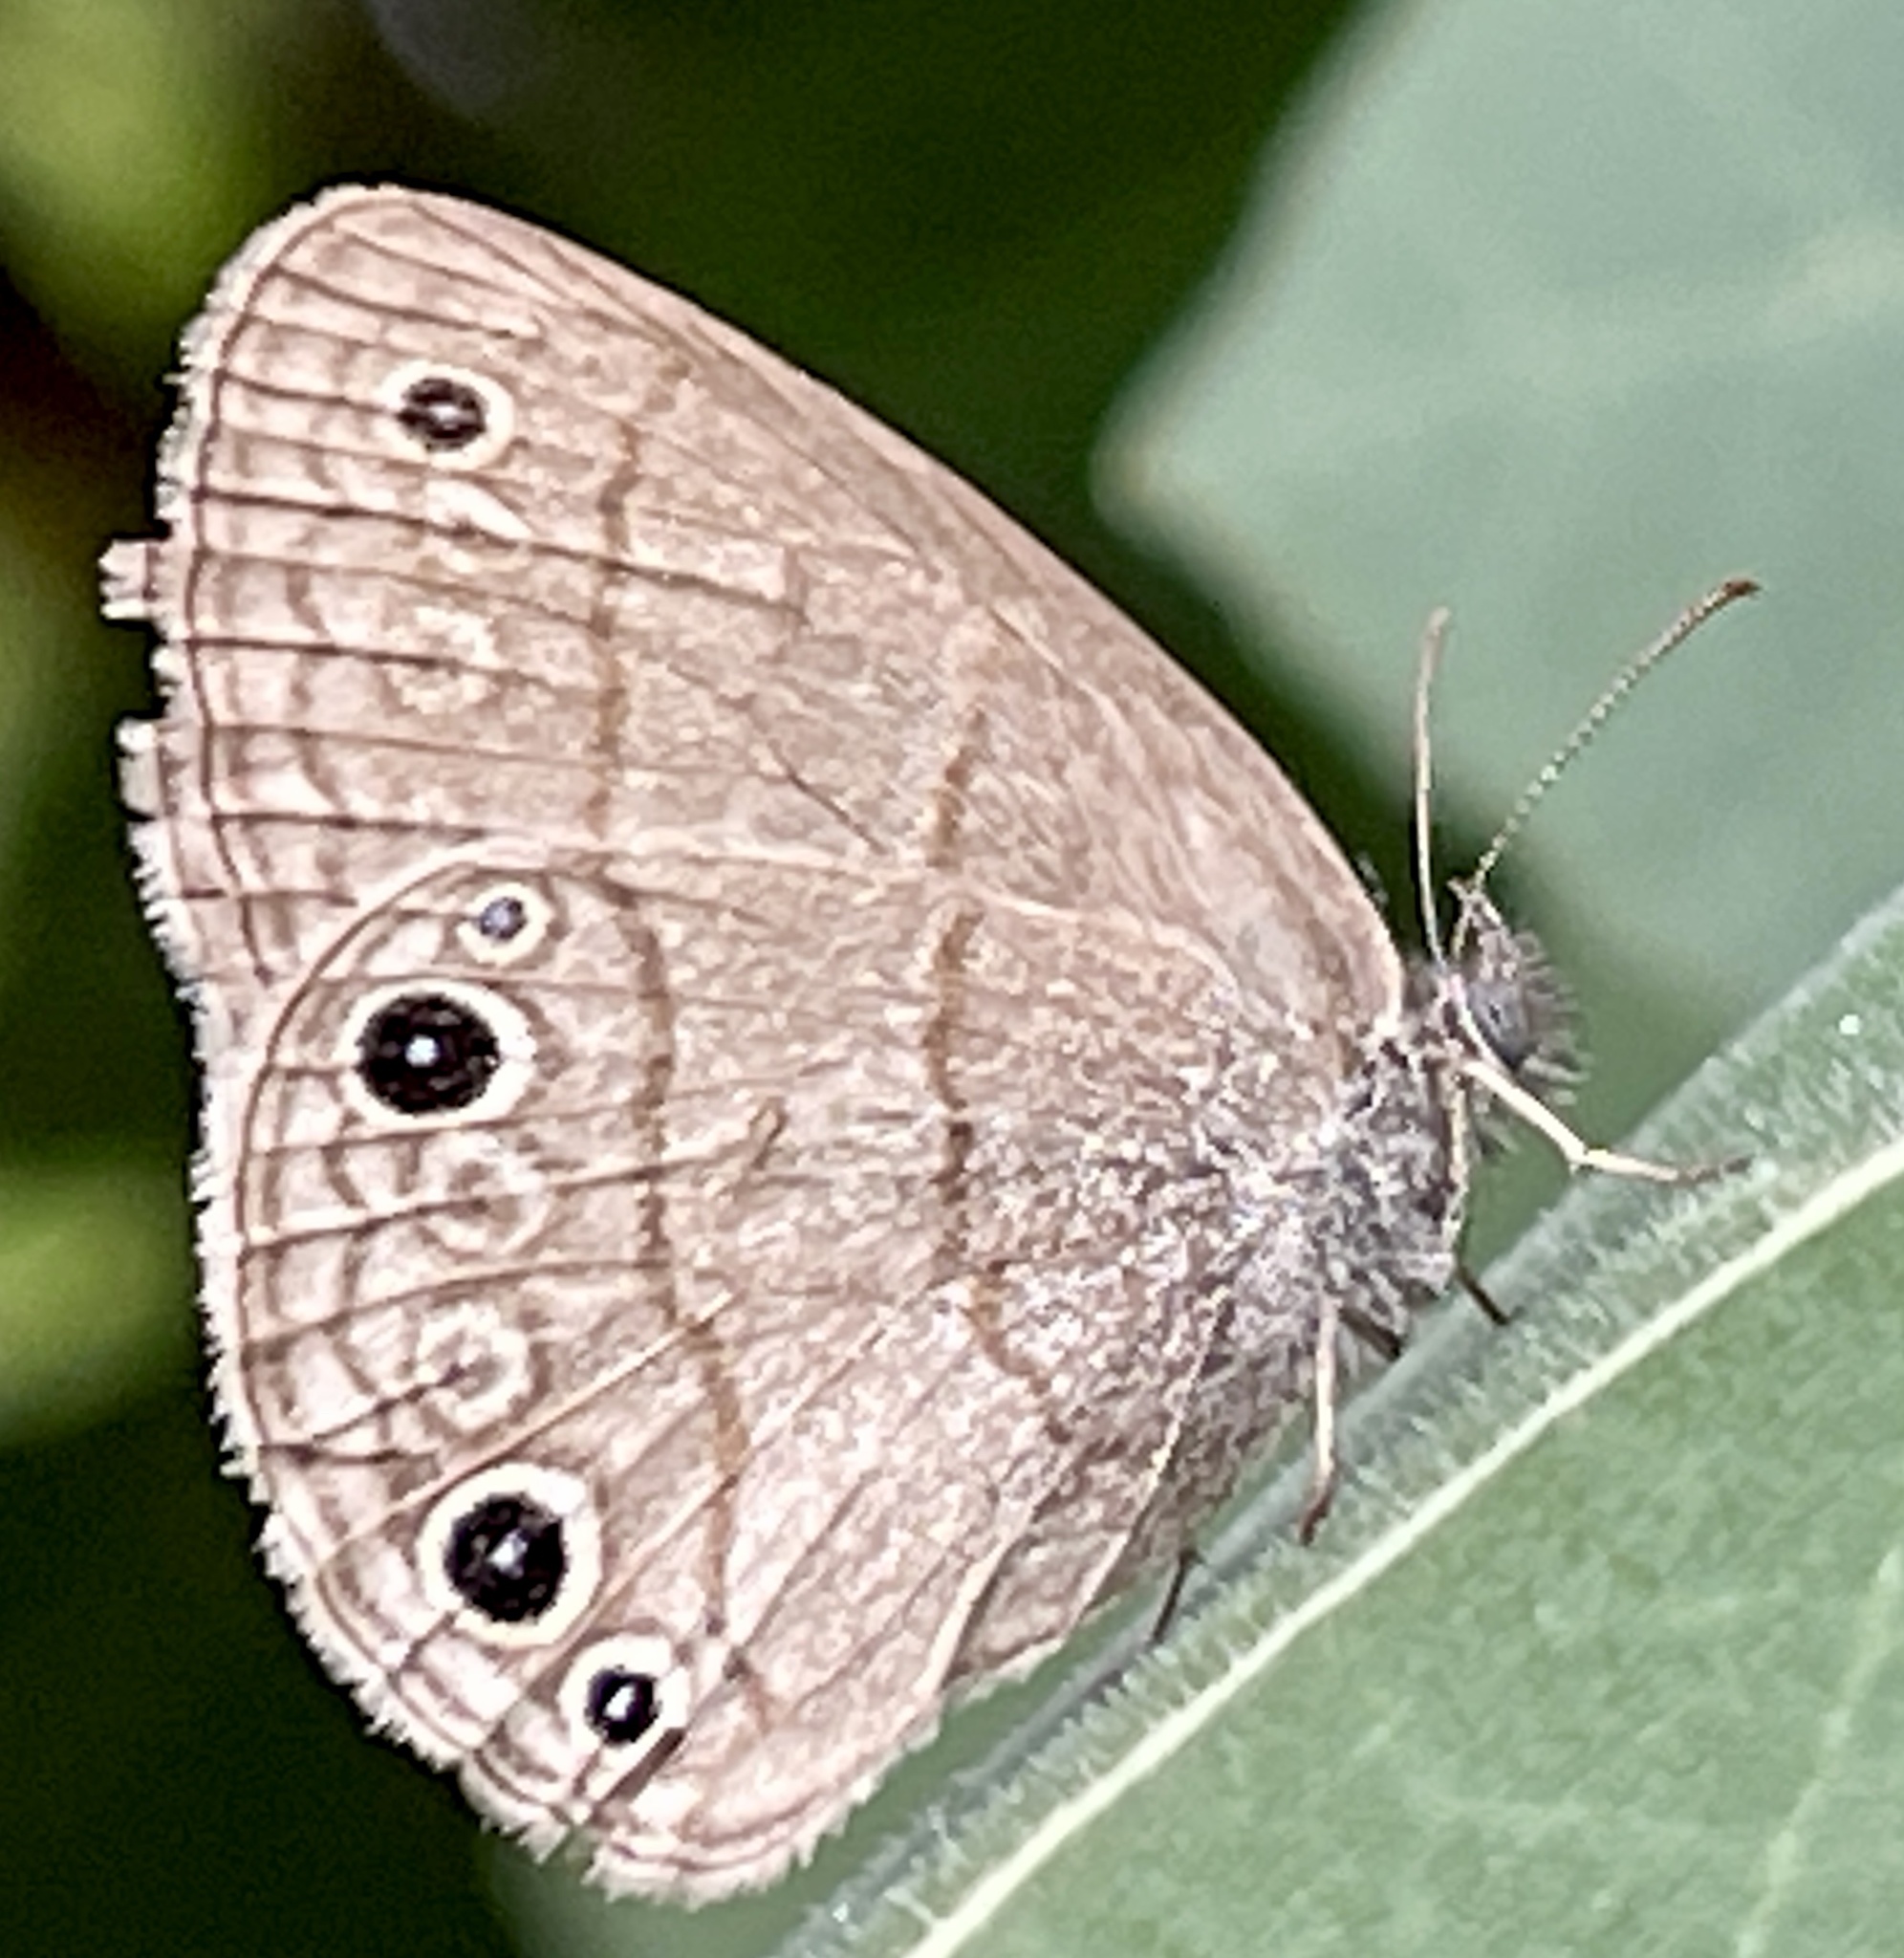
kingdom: Animalia
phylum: Arthropoda
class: Insecta
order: Lepidoptera
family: Nymphalidae
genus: Hermeuptychia
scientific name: Hermeuptychia hermes
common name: Hermes satyr
